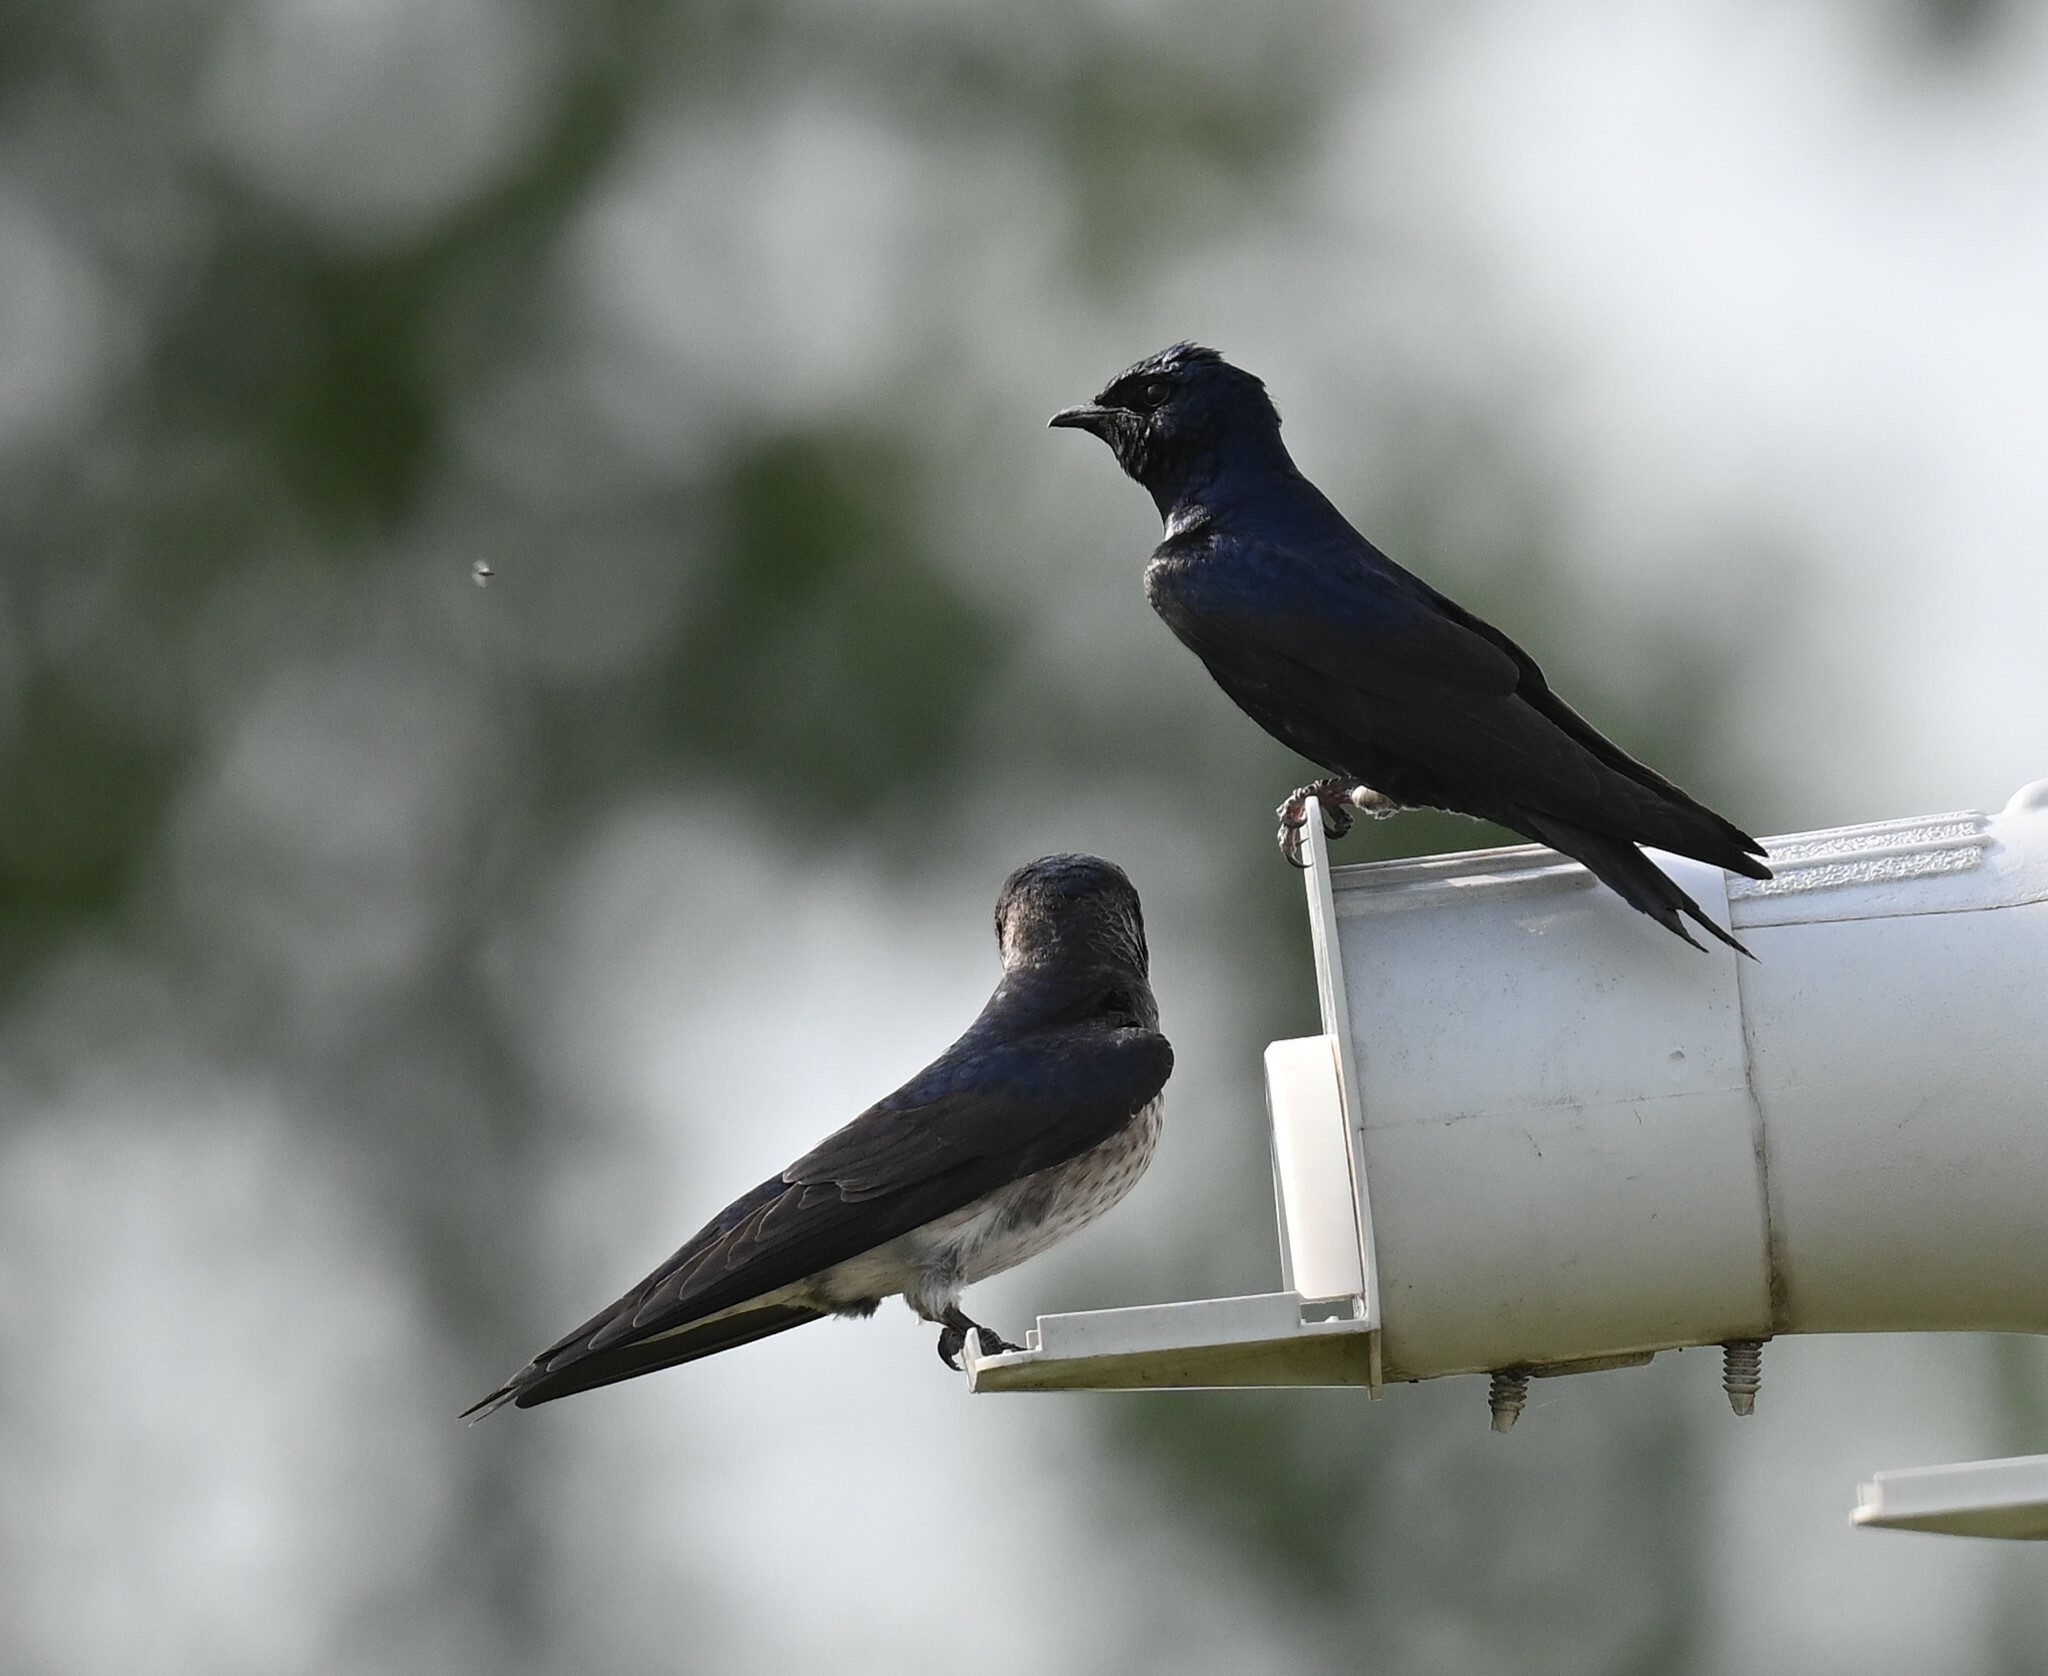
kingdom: Animalia
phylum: Chordata
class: Aves
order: Passeriformes
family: Hirundinidae
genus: Progne
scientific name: Progne subis
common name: Purple martin
